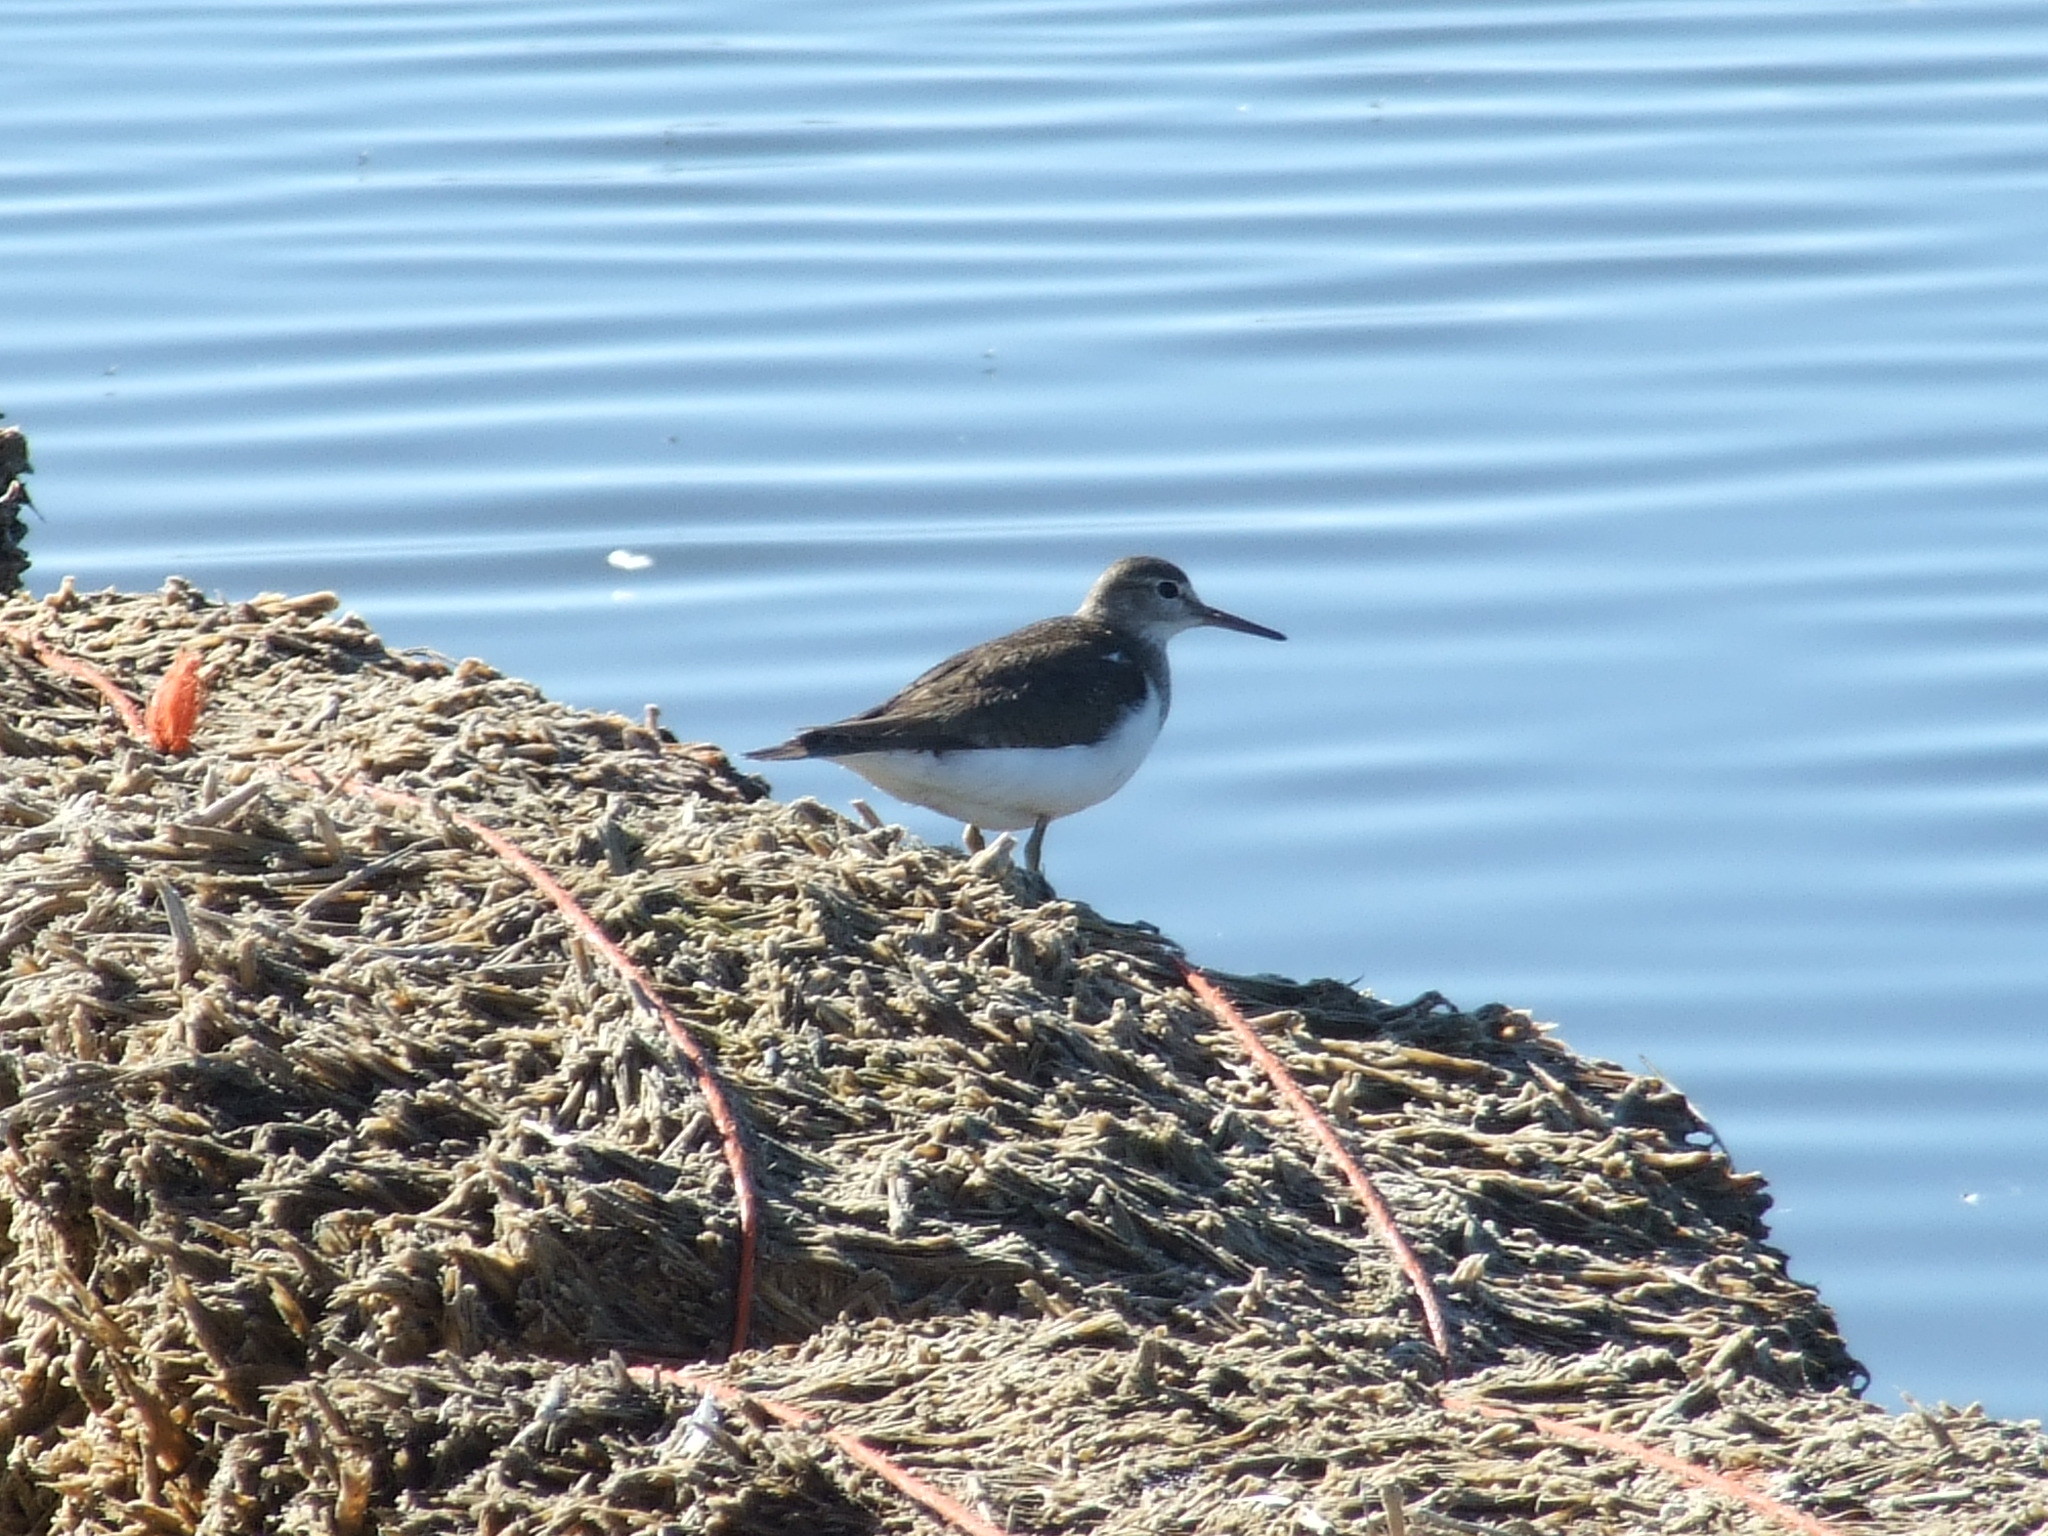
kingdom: Animalia
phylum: Chordata
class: Aves
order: Charadriiformes
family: Scolopacidae
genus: Actitis
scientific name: Actitis hypoleucos
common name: Common sandpiper
